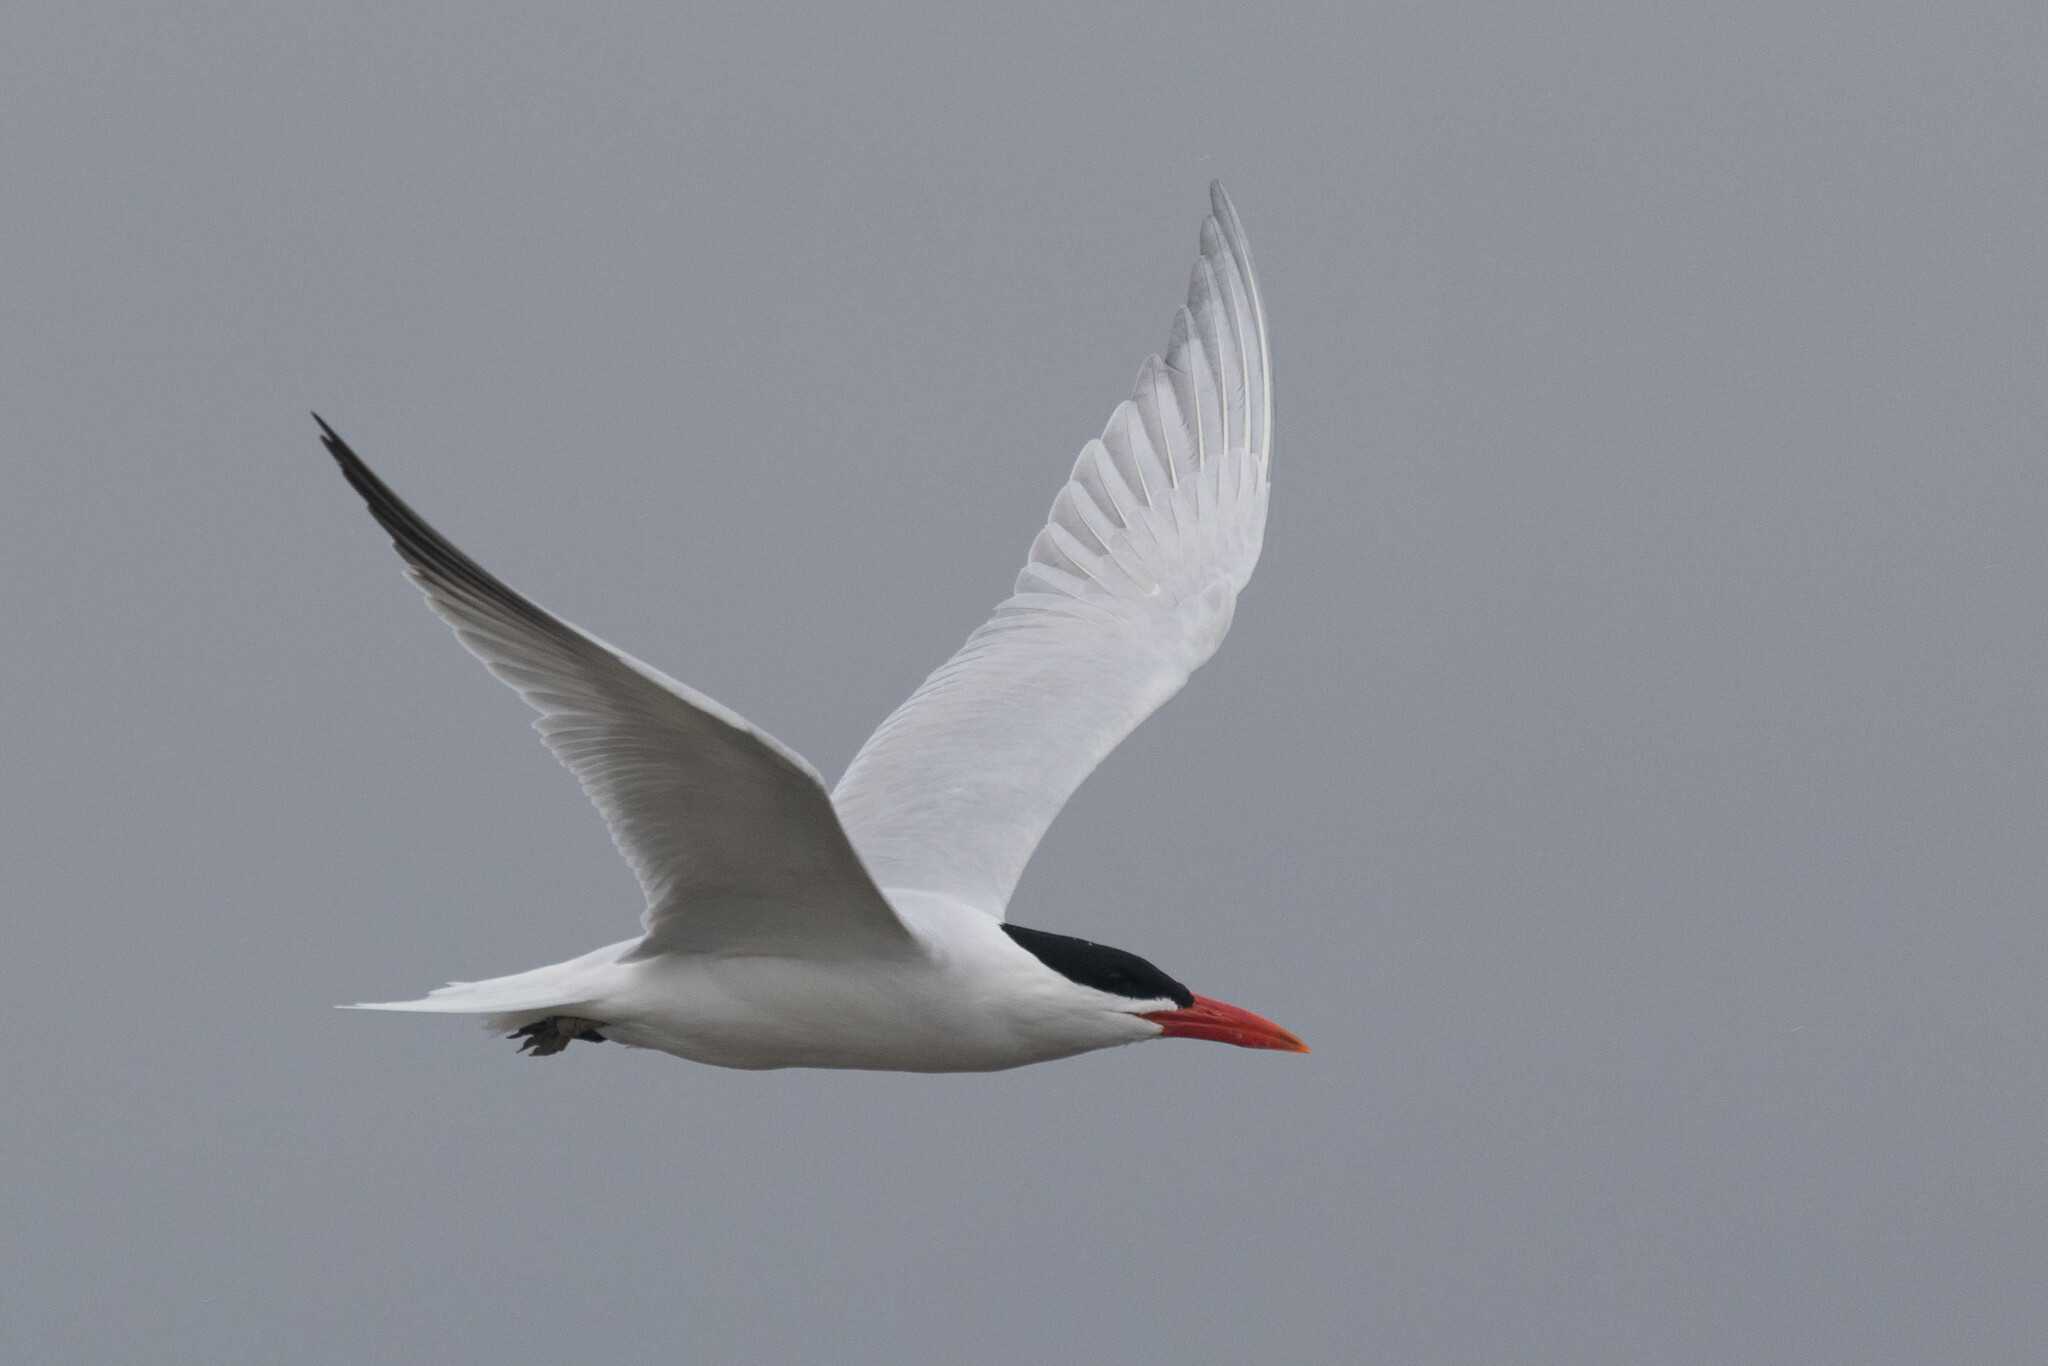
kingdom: Animalia
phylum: Chordata
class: Aves
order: Charadriiformes
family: Laridae
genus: Hydroprogne
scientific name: Hydroprogne caspia
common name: Caspian tern
